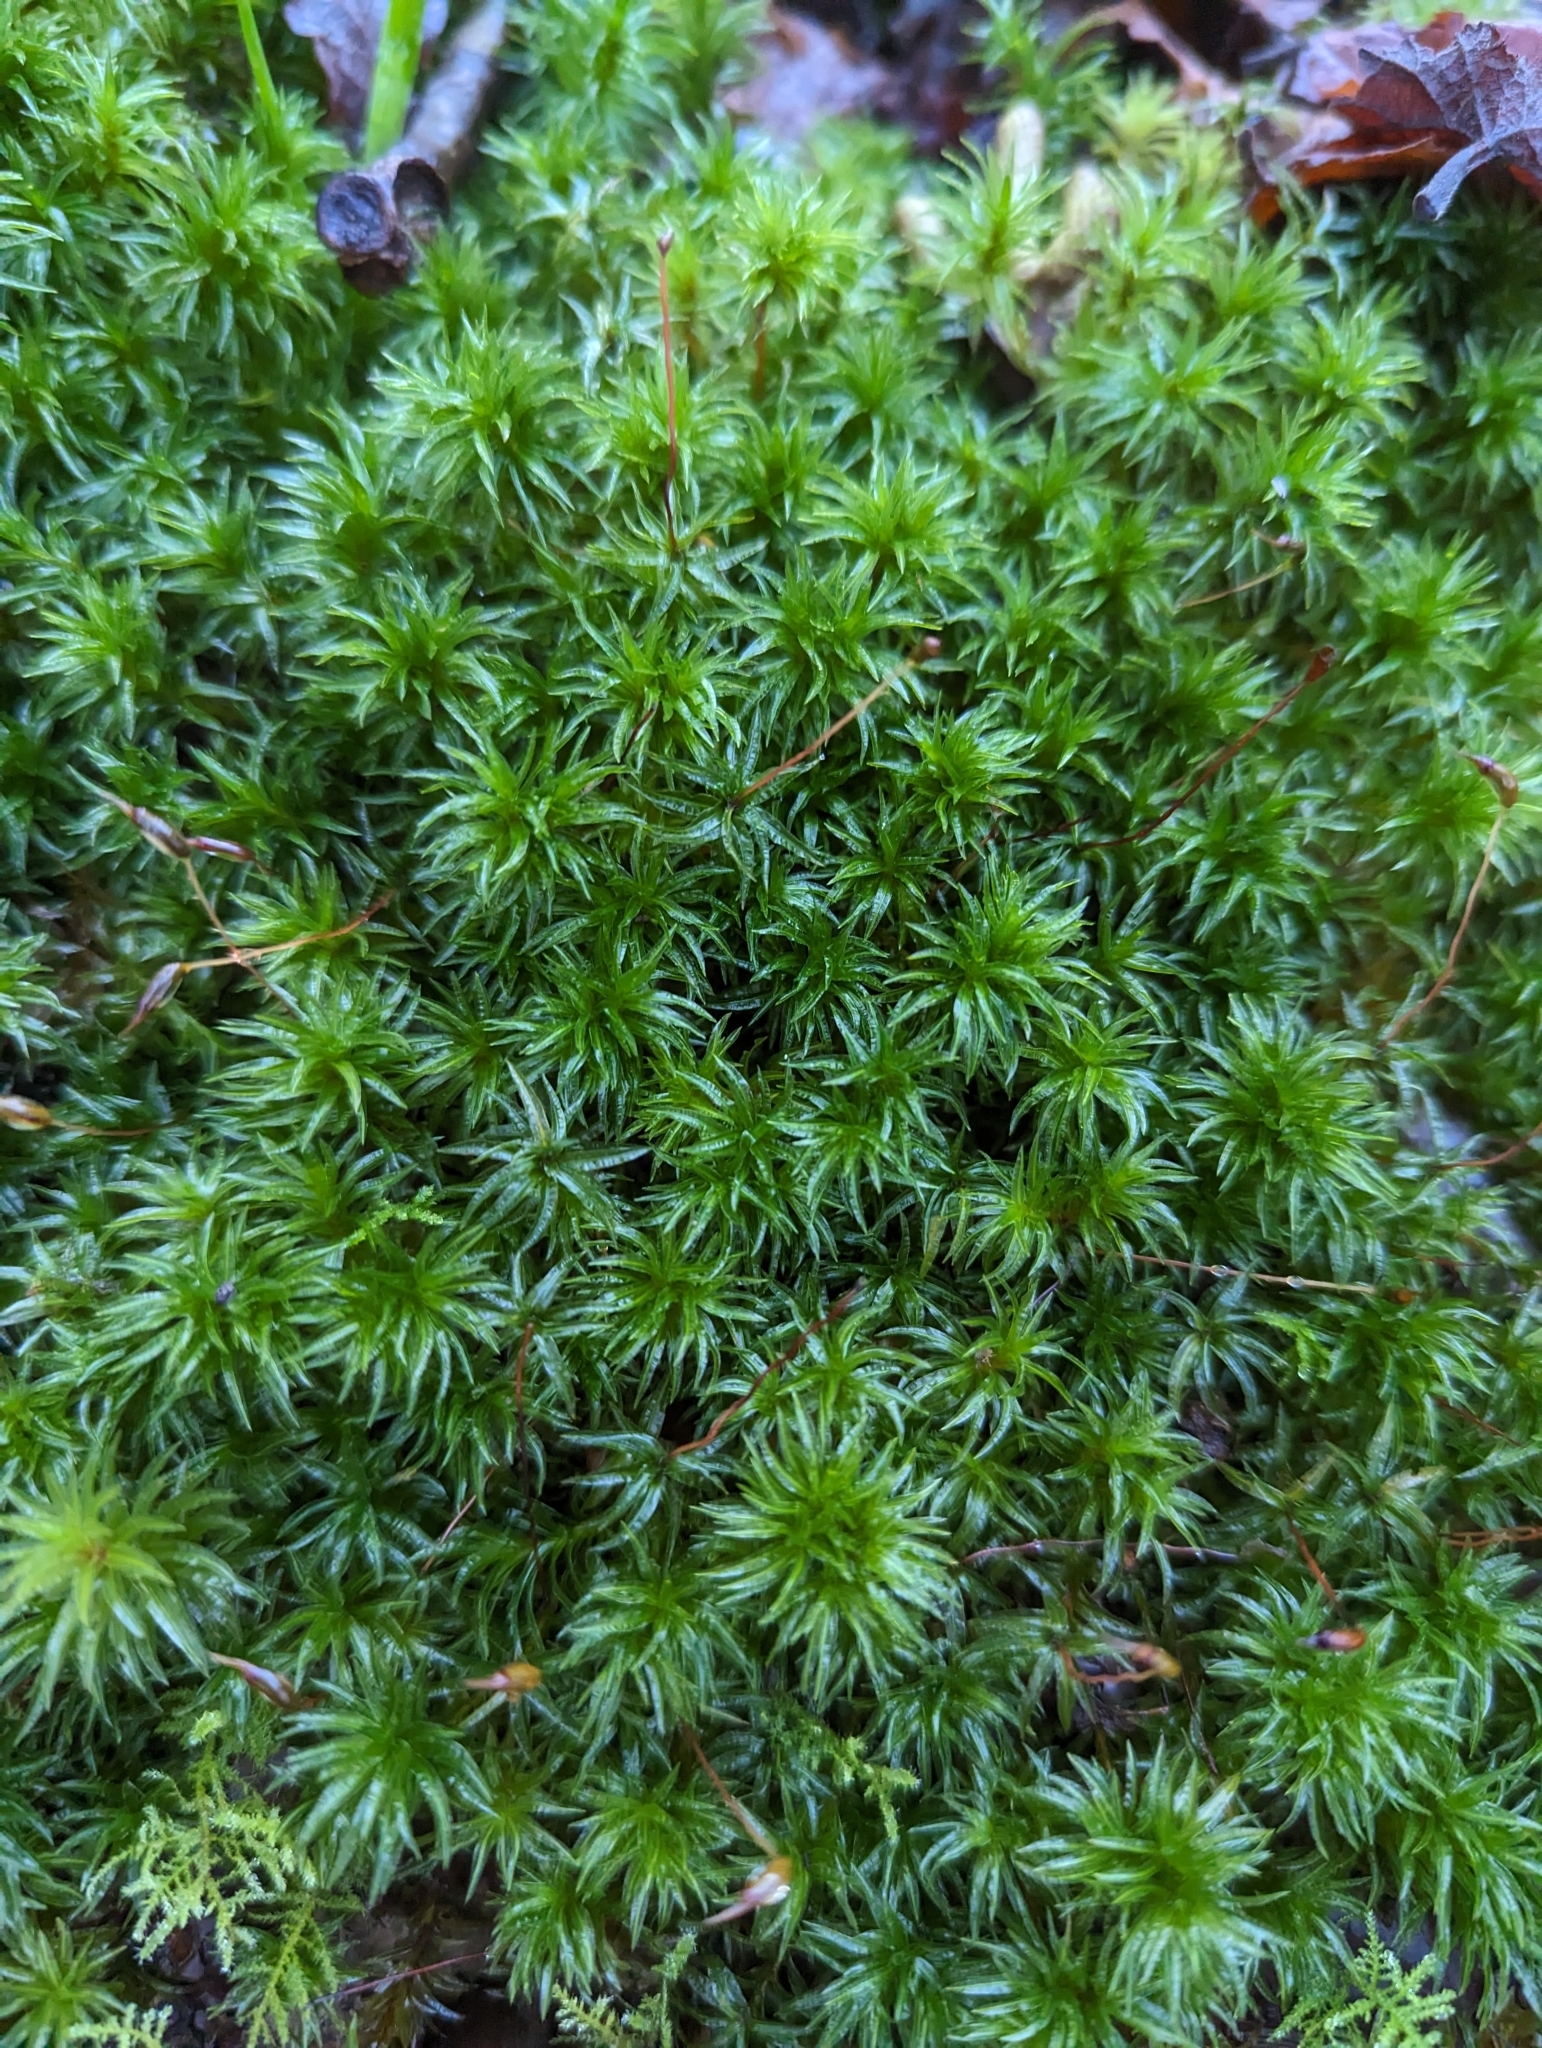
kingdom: Plantae
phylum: Bryophyta
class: Polytrichopsida
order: Polytrichales
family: Polytrichaceae
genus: Atrichum
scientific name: Atrichum undulatum
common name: Common smoothcap
